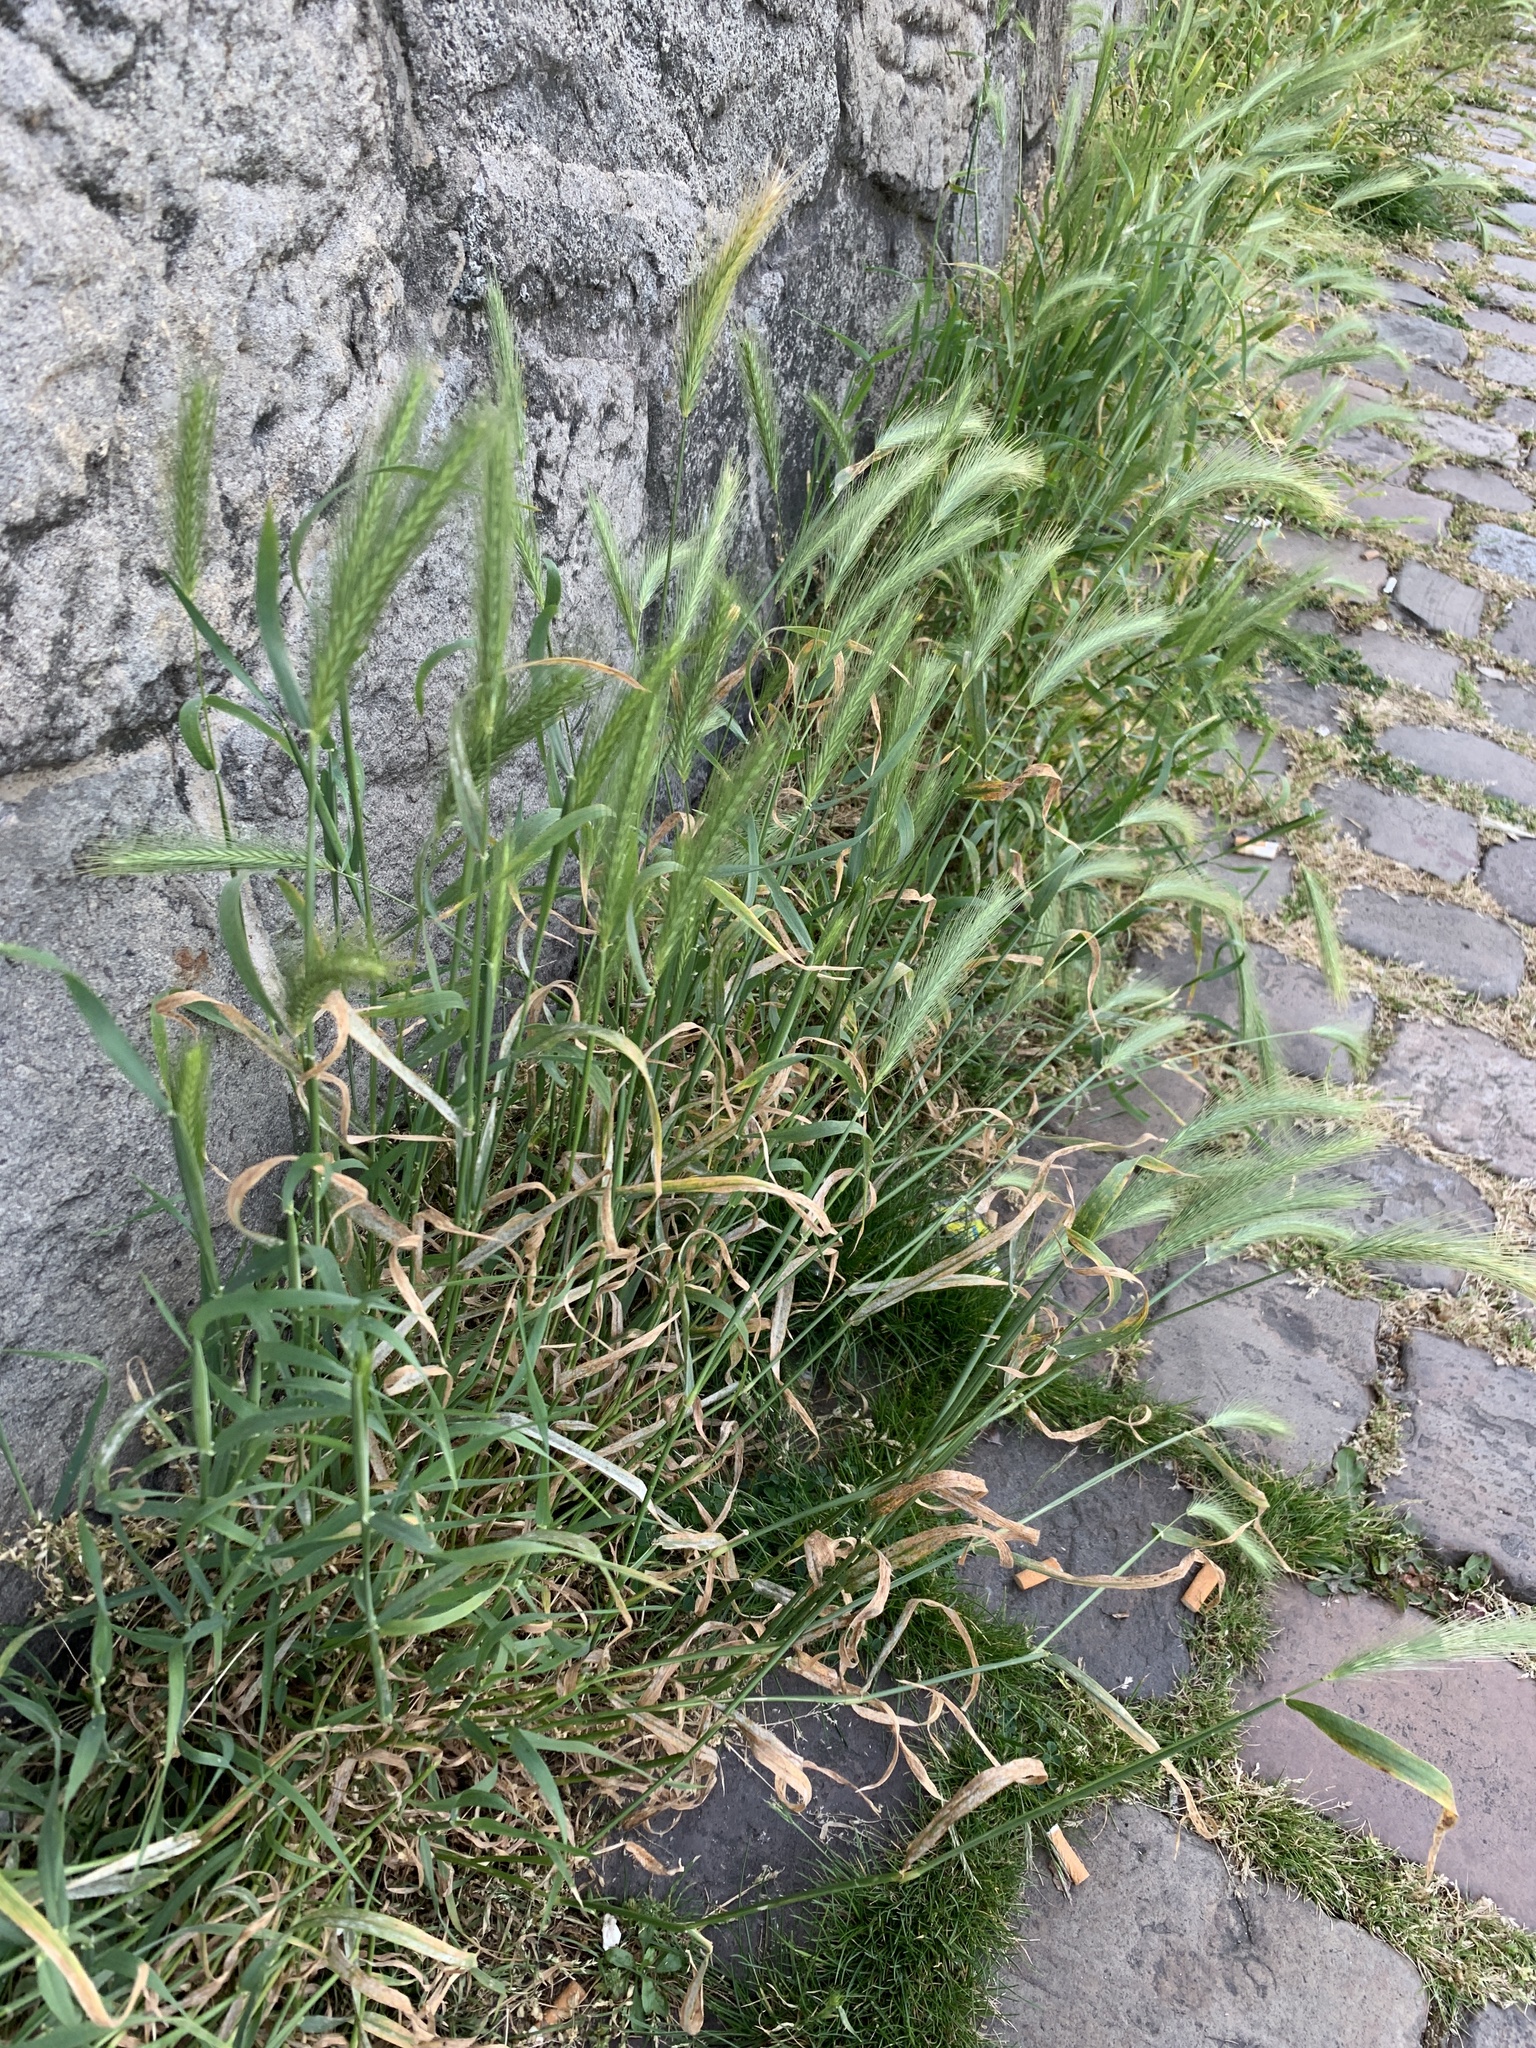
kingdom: Plantae
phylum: Tracheophyta
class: Liliopsida
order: Poales
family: Poaceae
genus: Hordeum
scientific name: Hordeum murinum
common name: Wall barley
